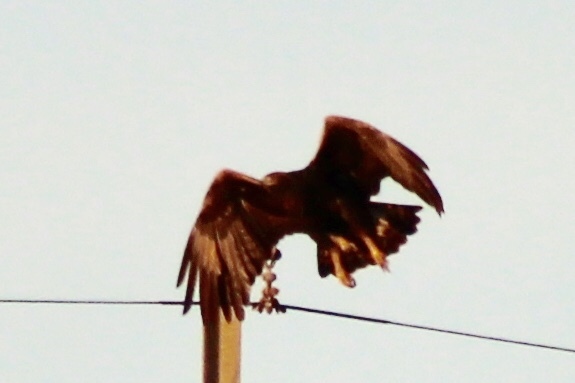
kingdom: Animalia
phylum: Chordata
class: Aves
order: Accipitriformes
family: Accipitridae
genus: Aquila
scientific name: Aquila chrysaetos
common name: Golden eagle
